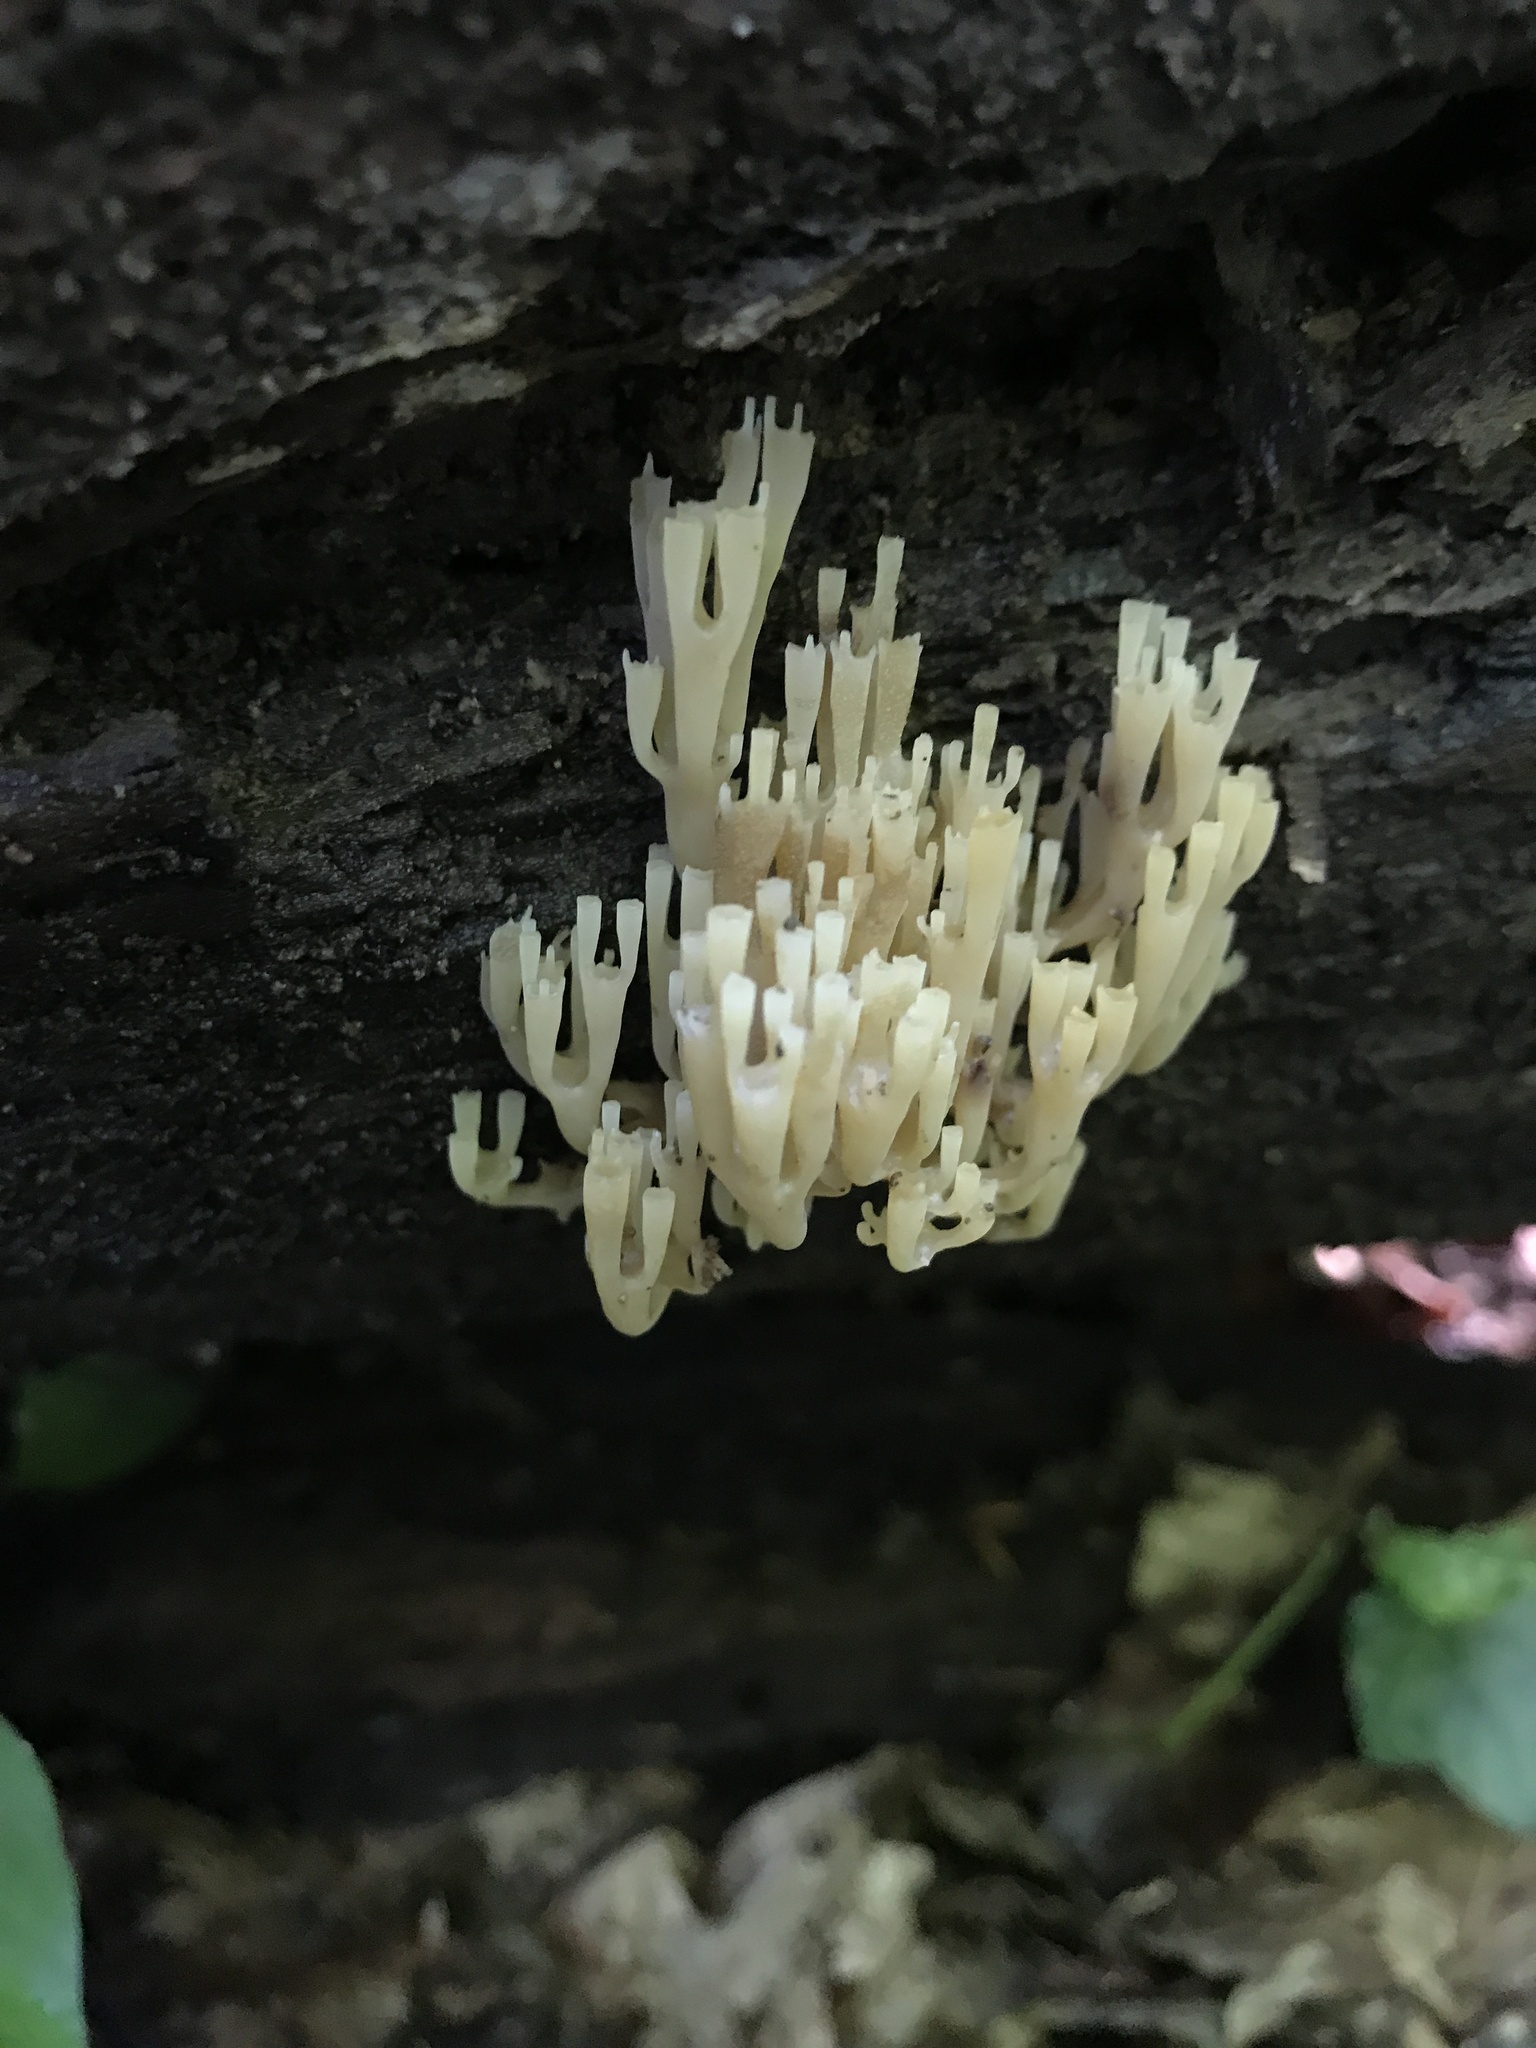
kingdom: Fungi
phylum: Basidiomycota
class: Agaricomycetes
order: Russulales
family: Auriscalpiaceae
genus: Artomyces
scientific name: Artomyces pyxidatus
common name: Crown-tipped coral fungus
